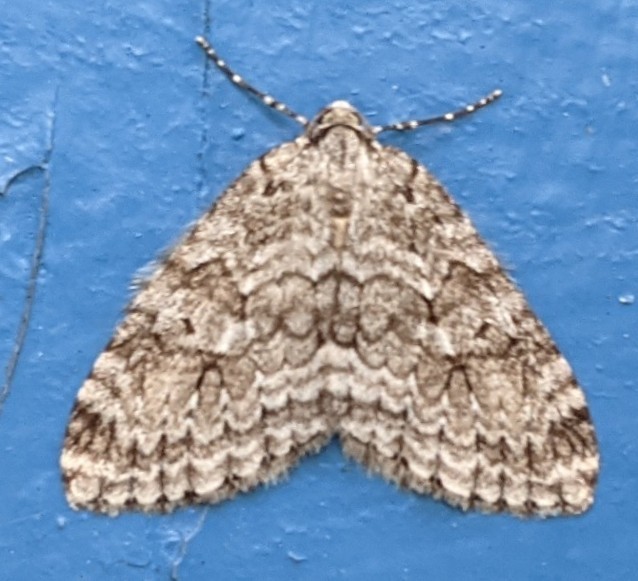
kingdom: Animalia
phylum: Arthropoda
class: Insecta
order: Lepidoptera
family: Geometridae
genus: Epirrita
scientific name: Epirrita autumnata
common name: Autumnal moth
